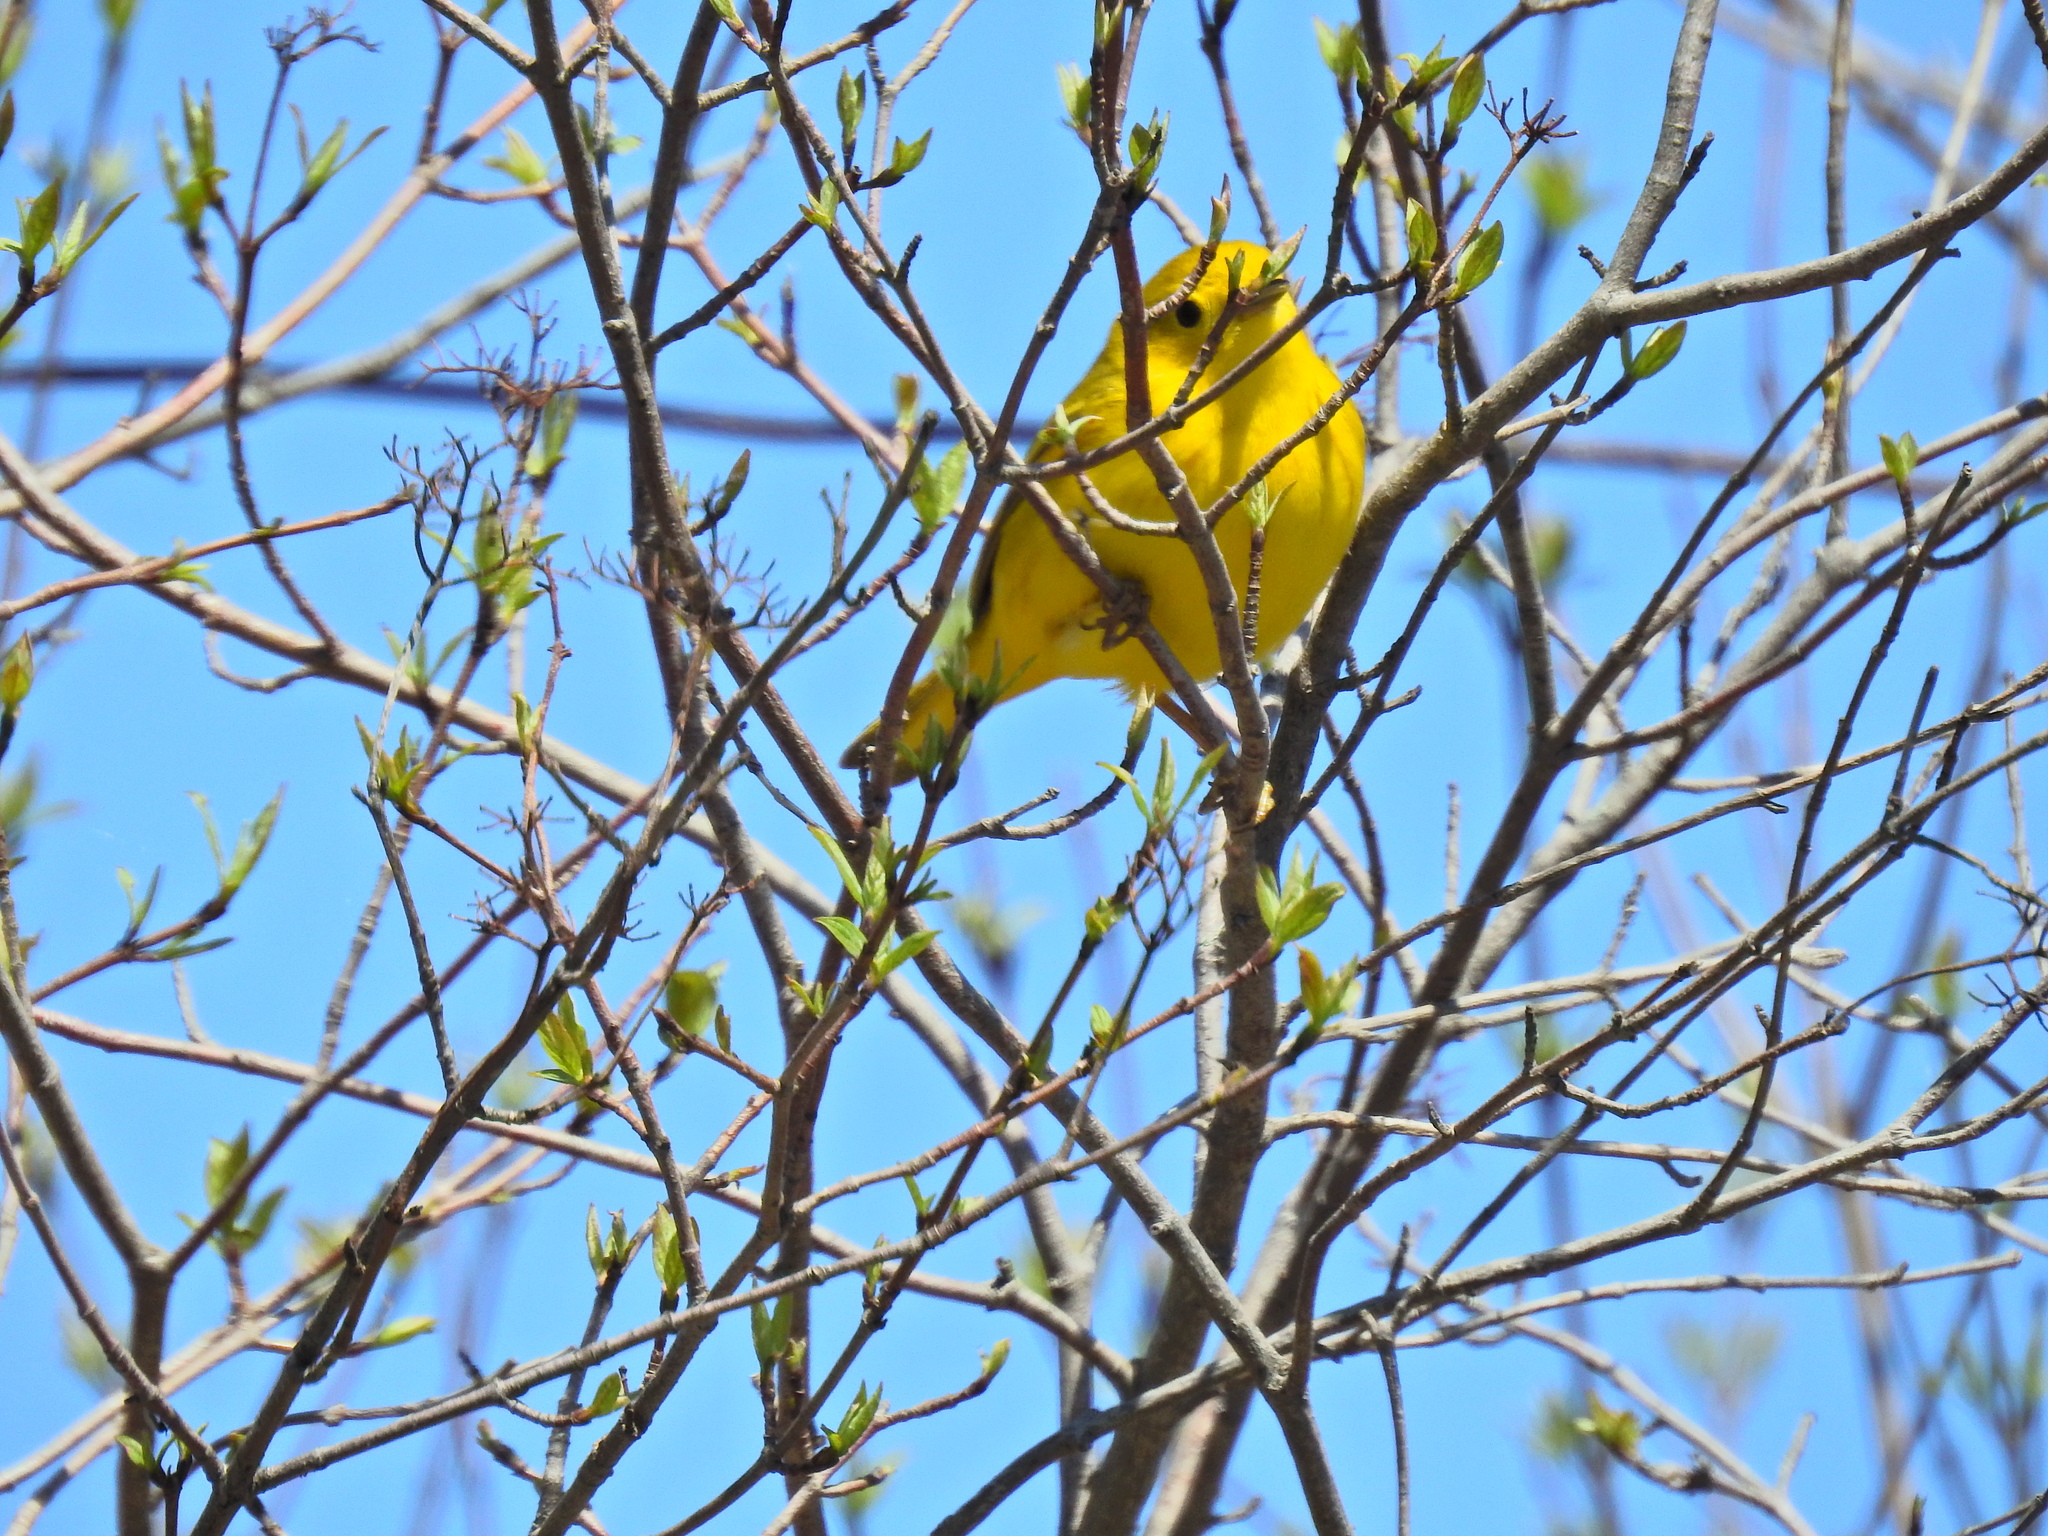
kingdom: Animalia
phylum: Chordata
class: Aves
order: Passeriformes
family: Parulidae
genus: Setophaga
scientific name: Setophaga petechia
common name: Yellow warbler
